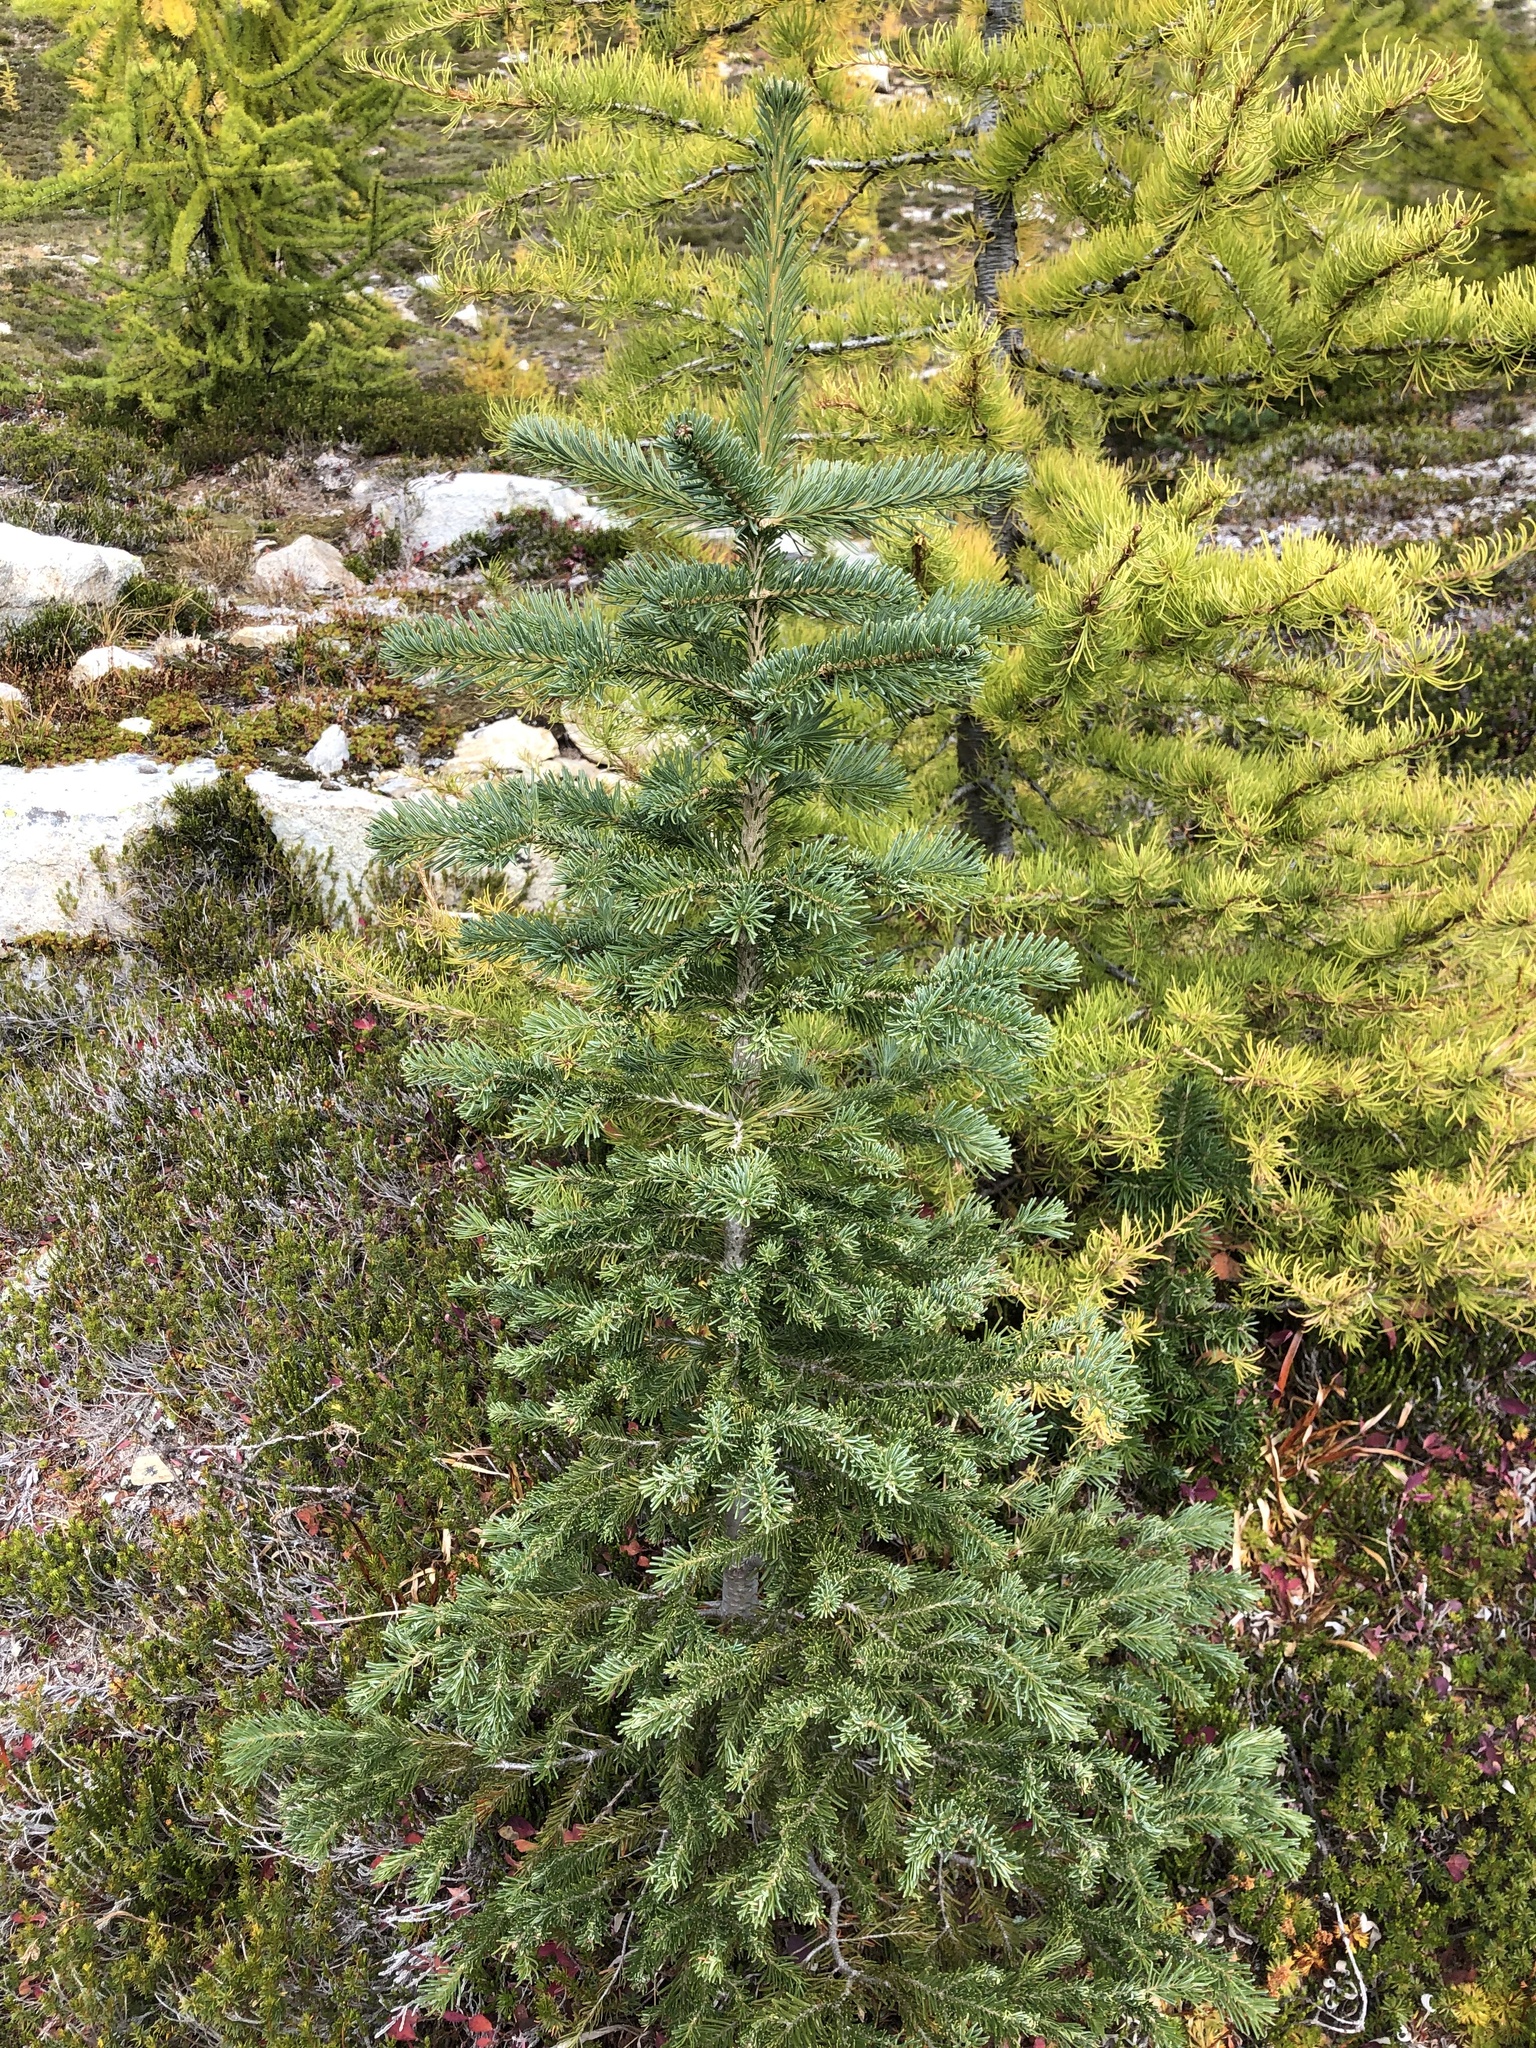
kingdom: Plantae
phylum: Tracheophyta
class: Pinopsida
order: Pinales
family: Pinaceae
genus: Abies
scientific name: Abies lasiocarpa
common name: Subalpine fir
